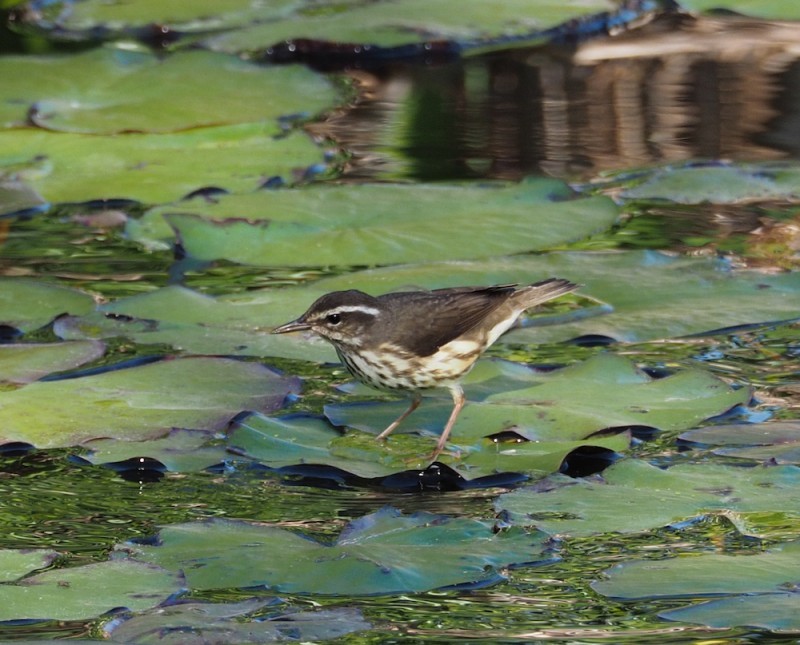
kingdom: Animalia
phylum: Chordata
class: Aves
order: Passeriformes
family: Parulidae
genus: Parkesia
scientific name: Parkesia motacilla
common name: Louisiana waterthrush
